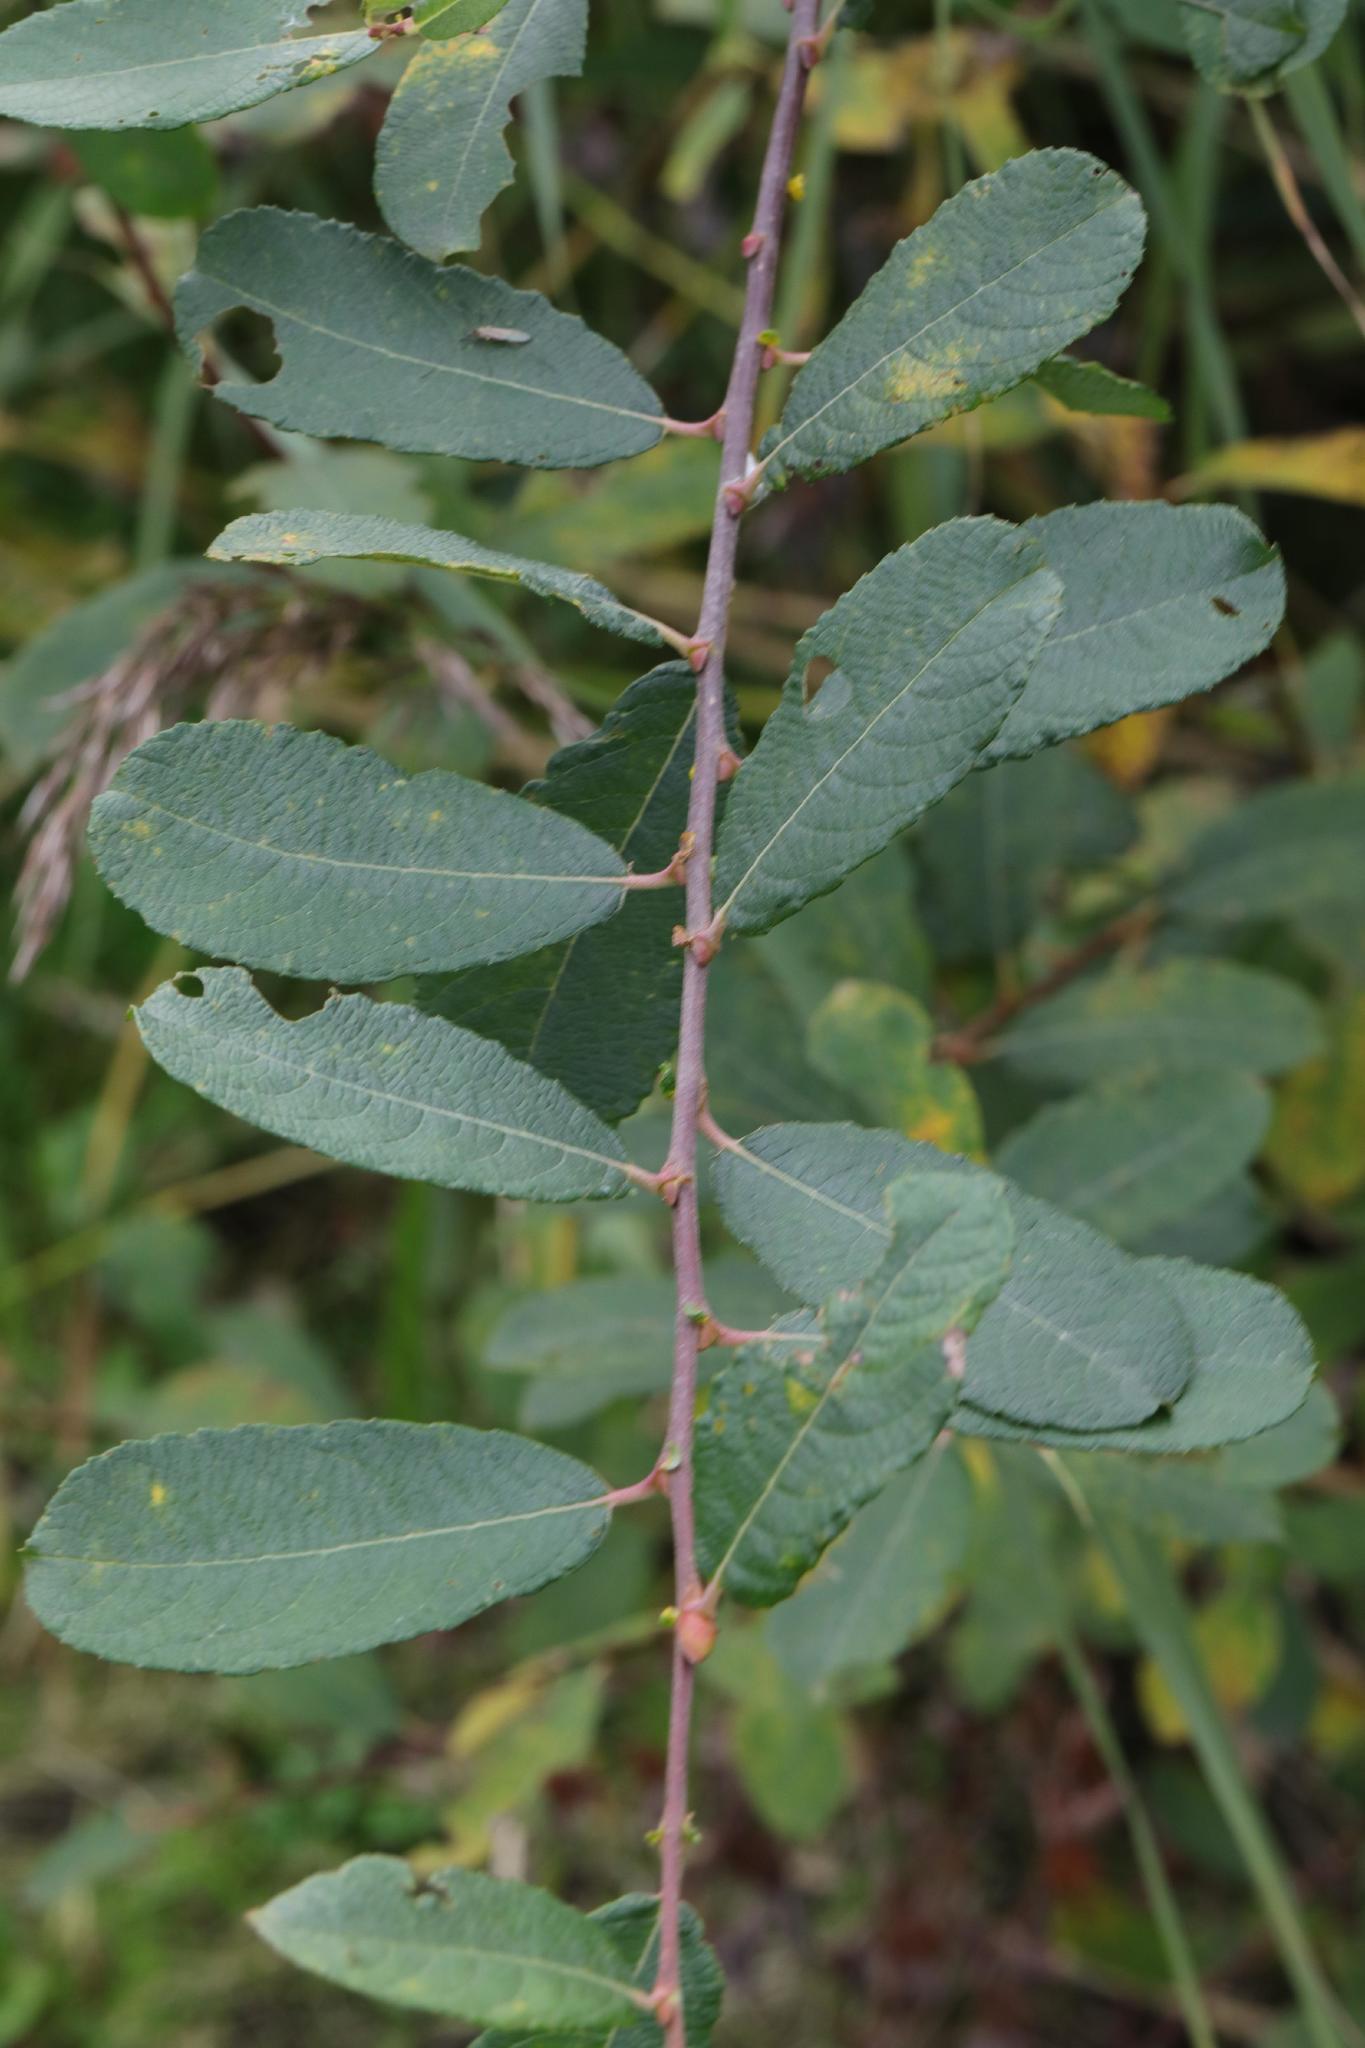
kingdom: Plantae
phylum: Tracheophyta
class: Magnoliopsida
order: Malpighiales
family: Salicaceae
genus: Salix
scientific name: Salix cinerea
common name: Common sallow
